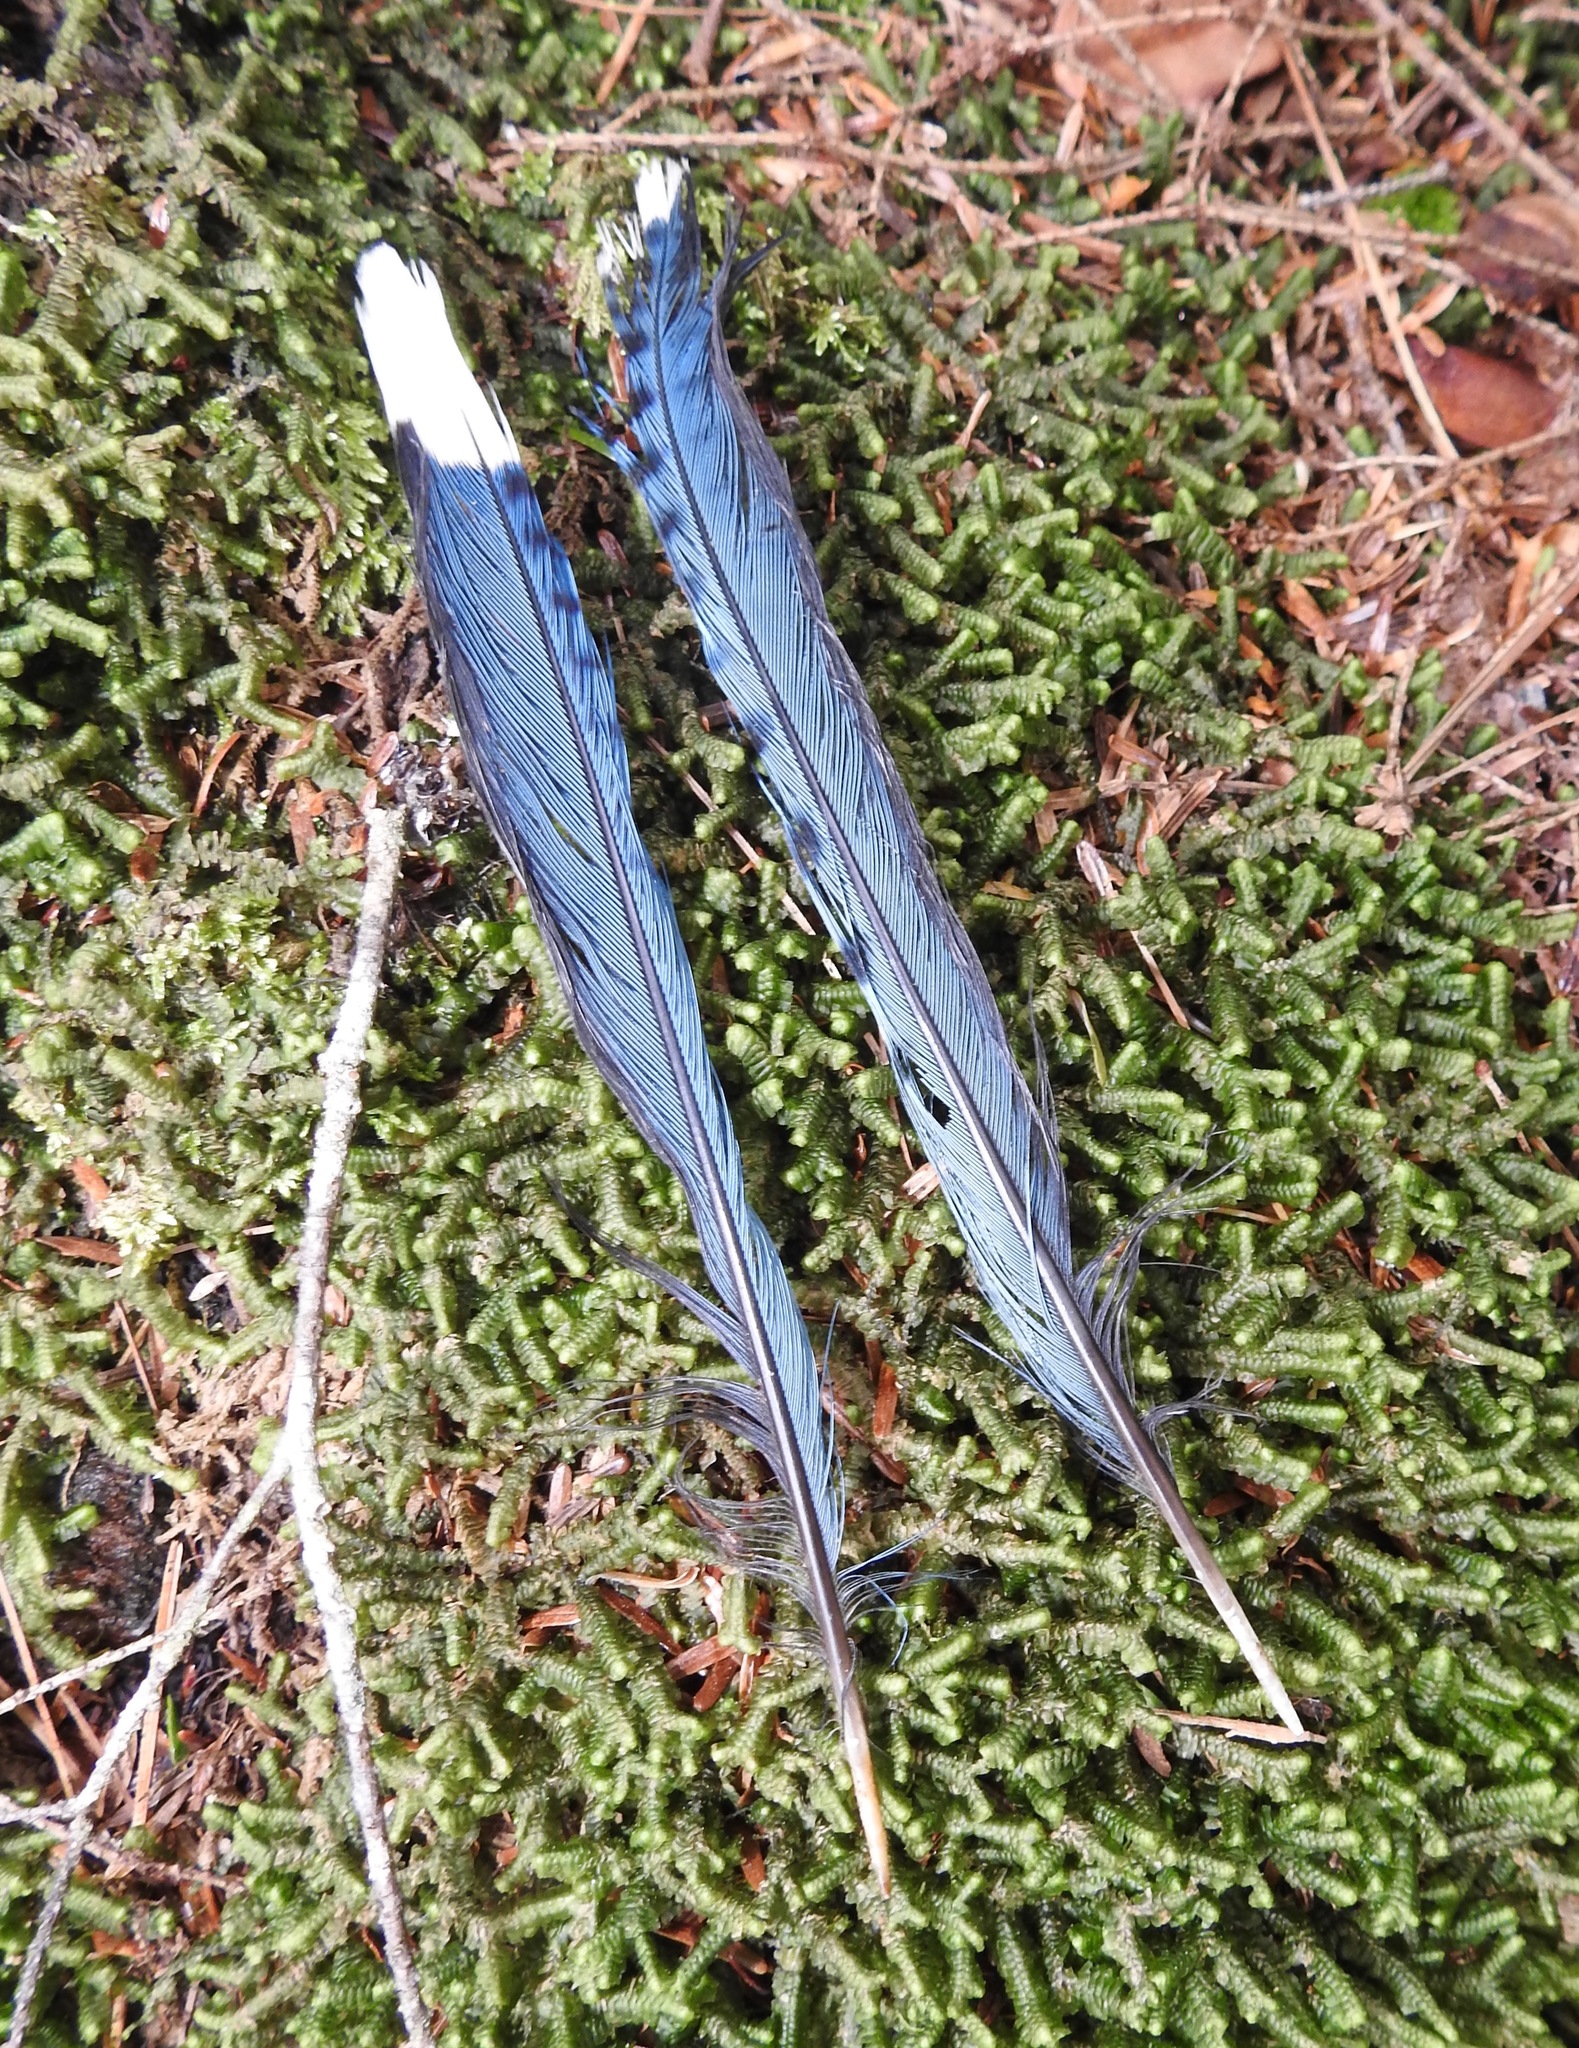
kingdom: Animalia
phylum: Chordata
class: Aves
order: Passeriformes
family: Corvidae
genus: Cyanocitta
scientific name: Cyanocitta cristata
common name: Blue jay
